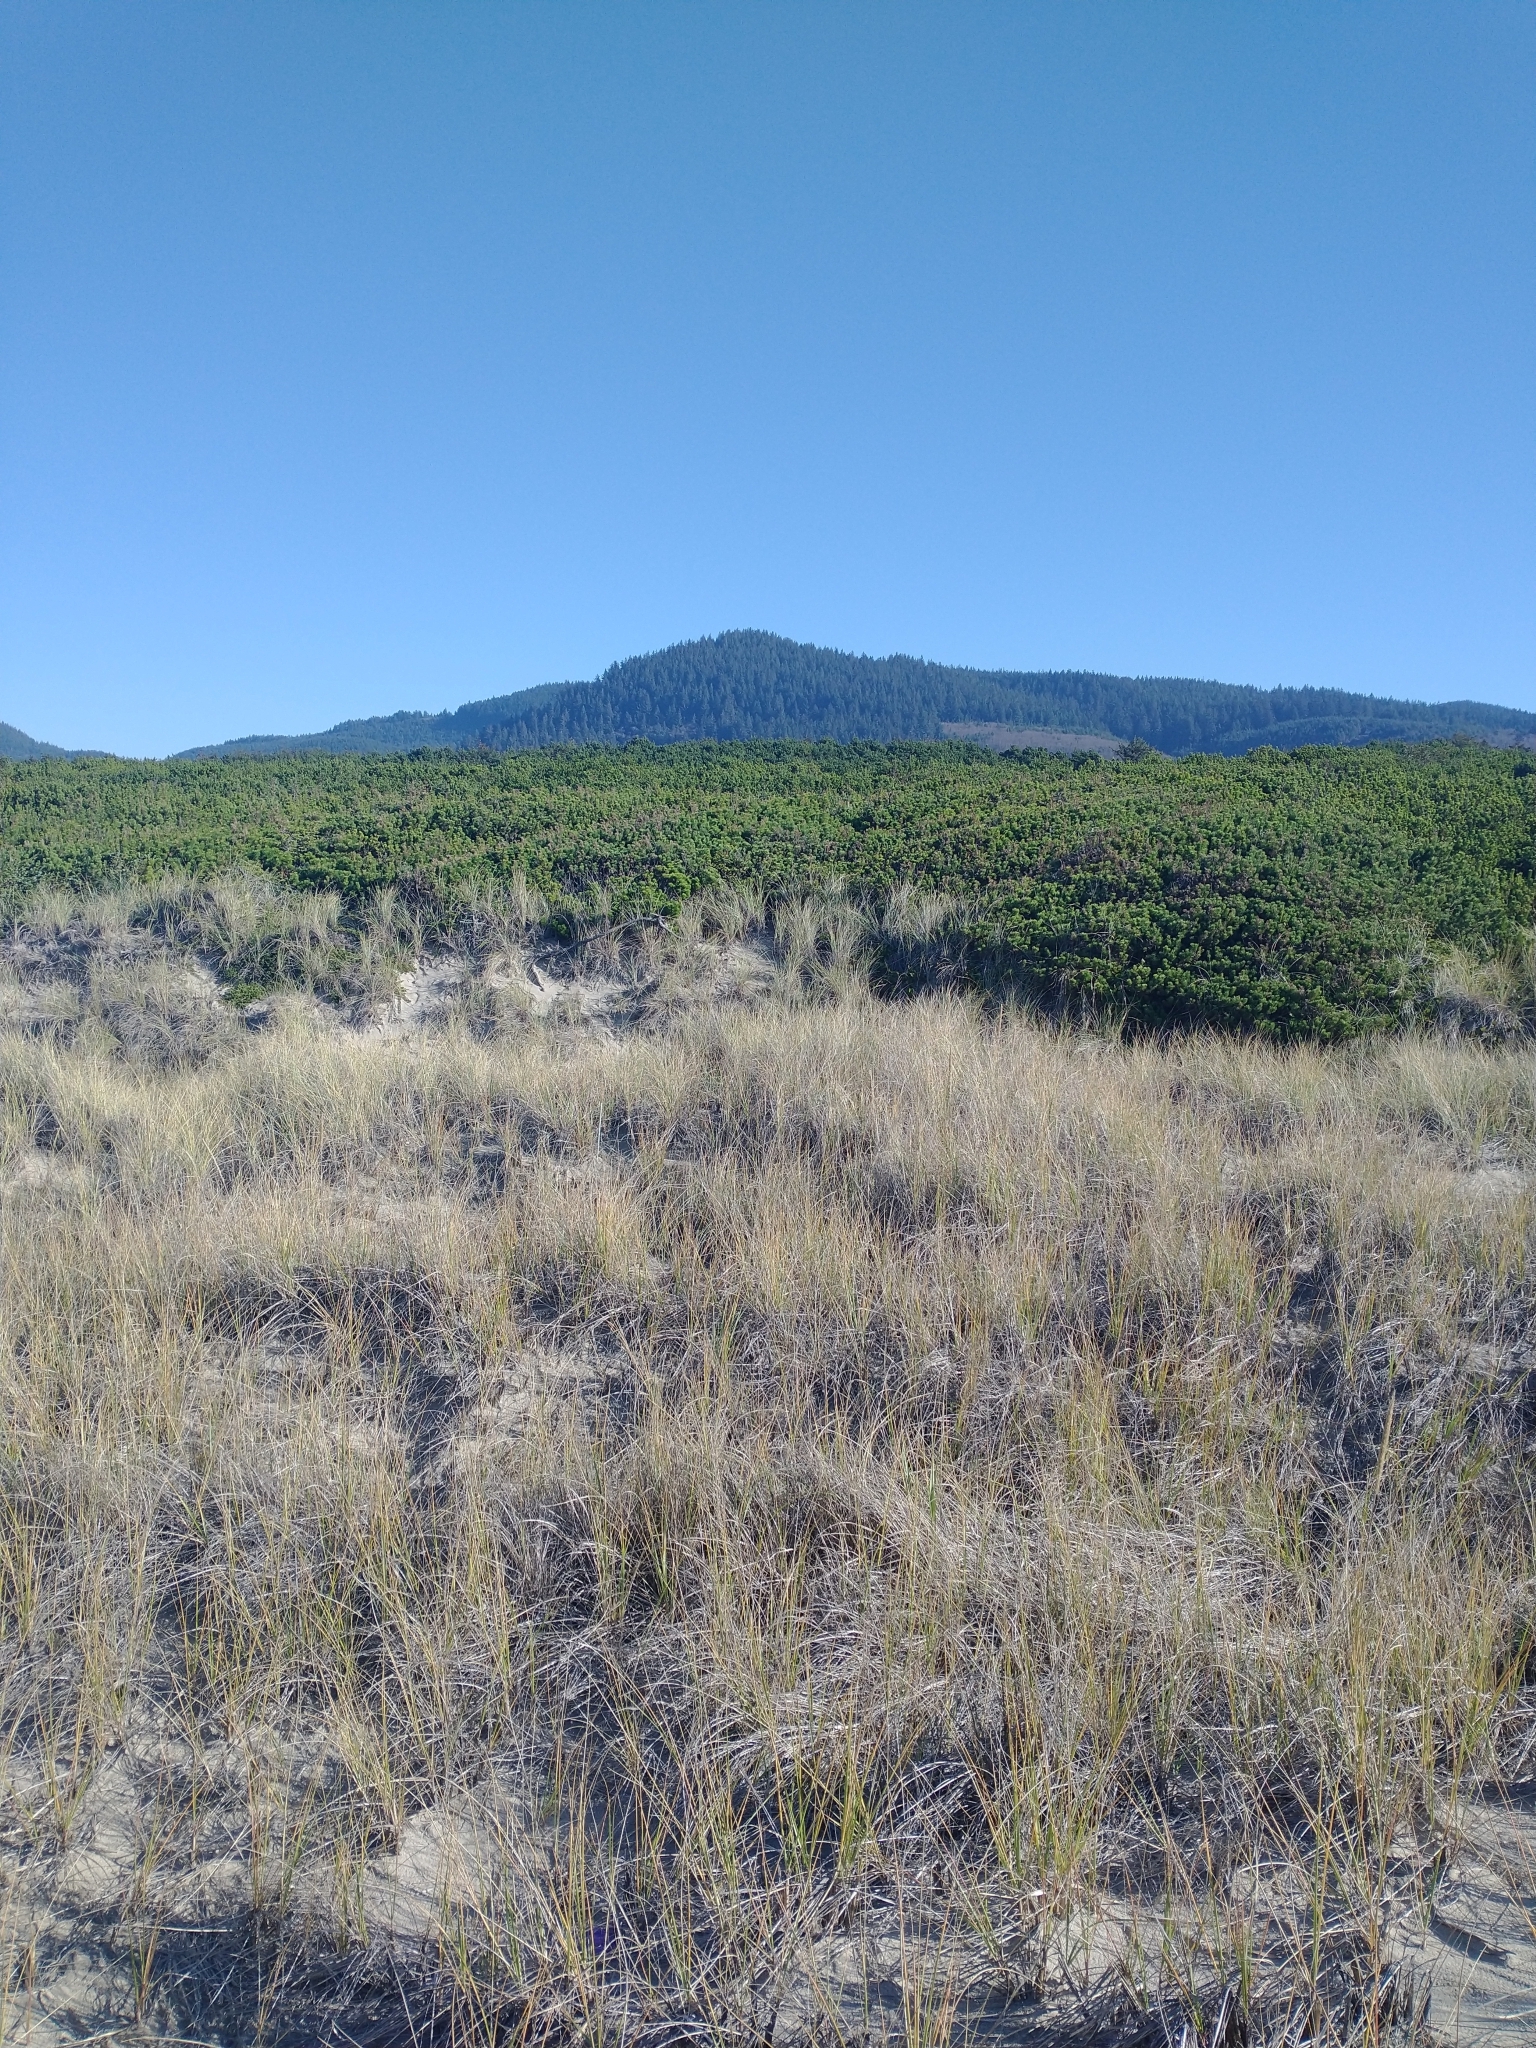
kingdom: Plantae
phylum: Tracheophyta
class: Pinopsida
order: Pinales
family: Pinaceae
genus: Pinus
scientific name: Pinus contorta
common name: Lodgepole pine
